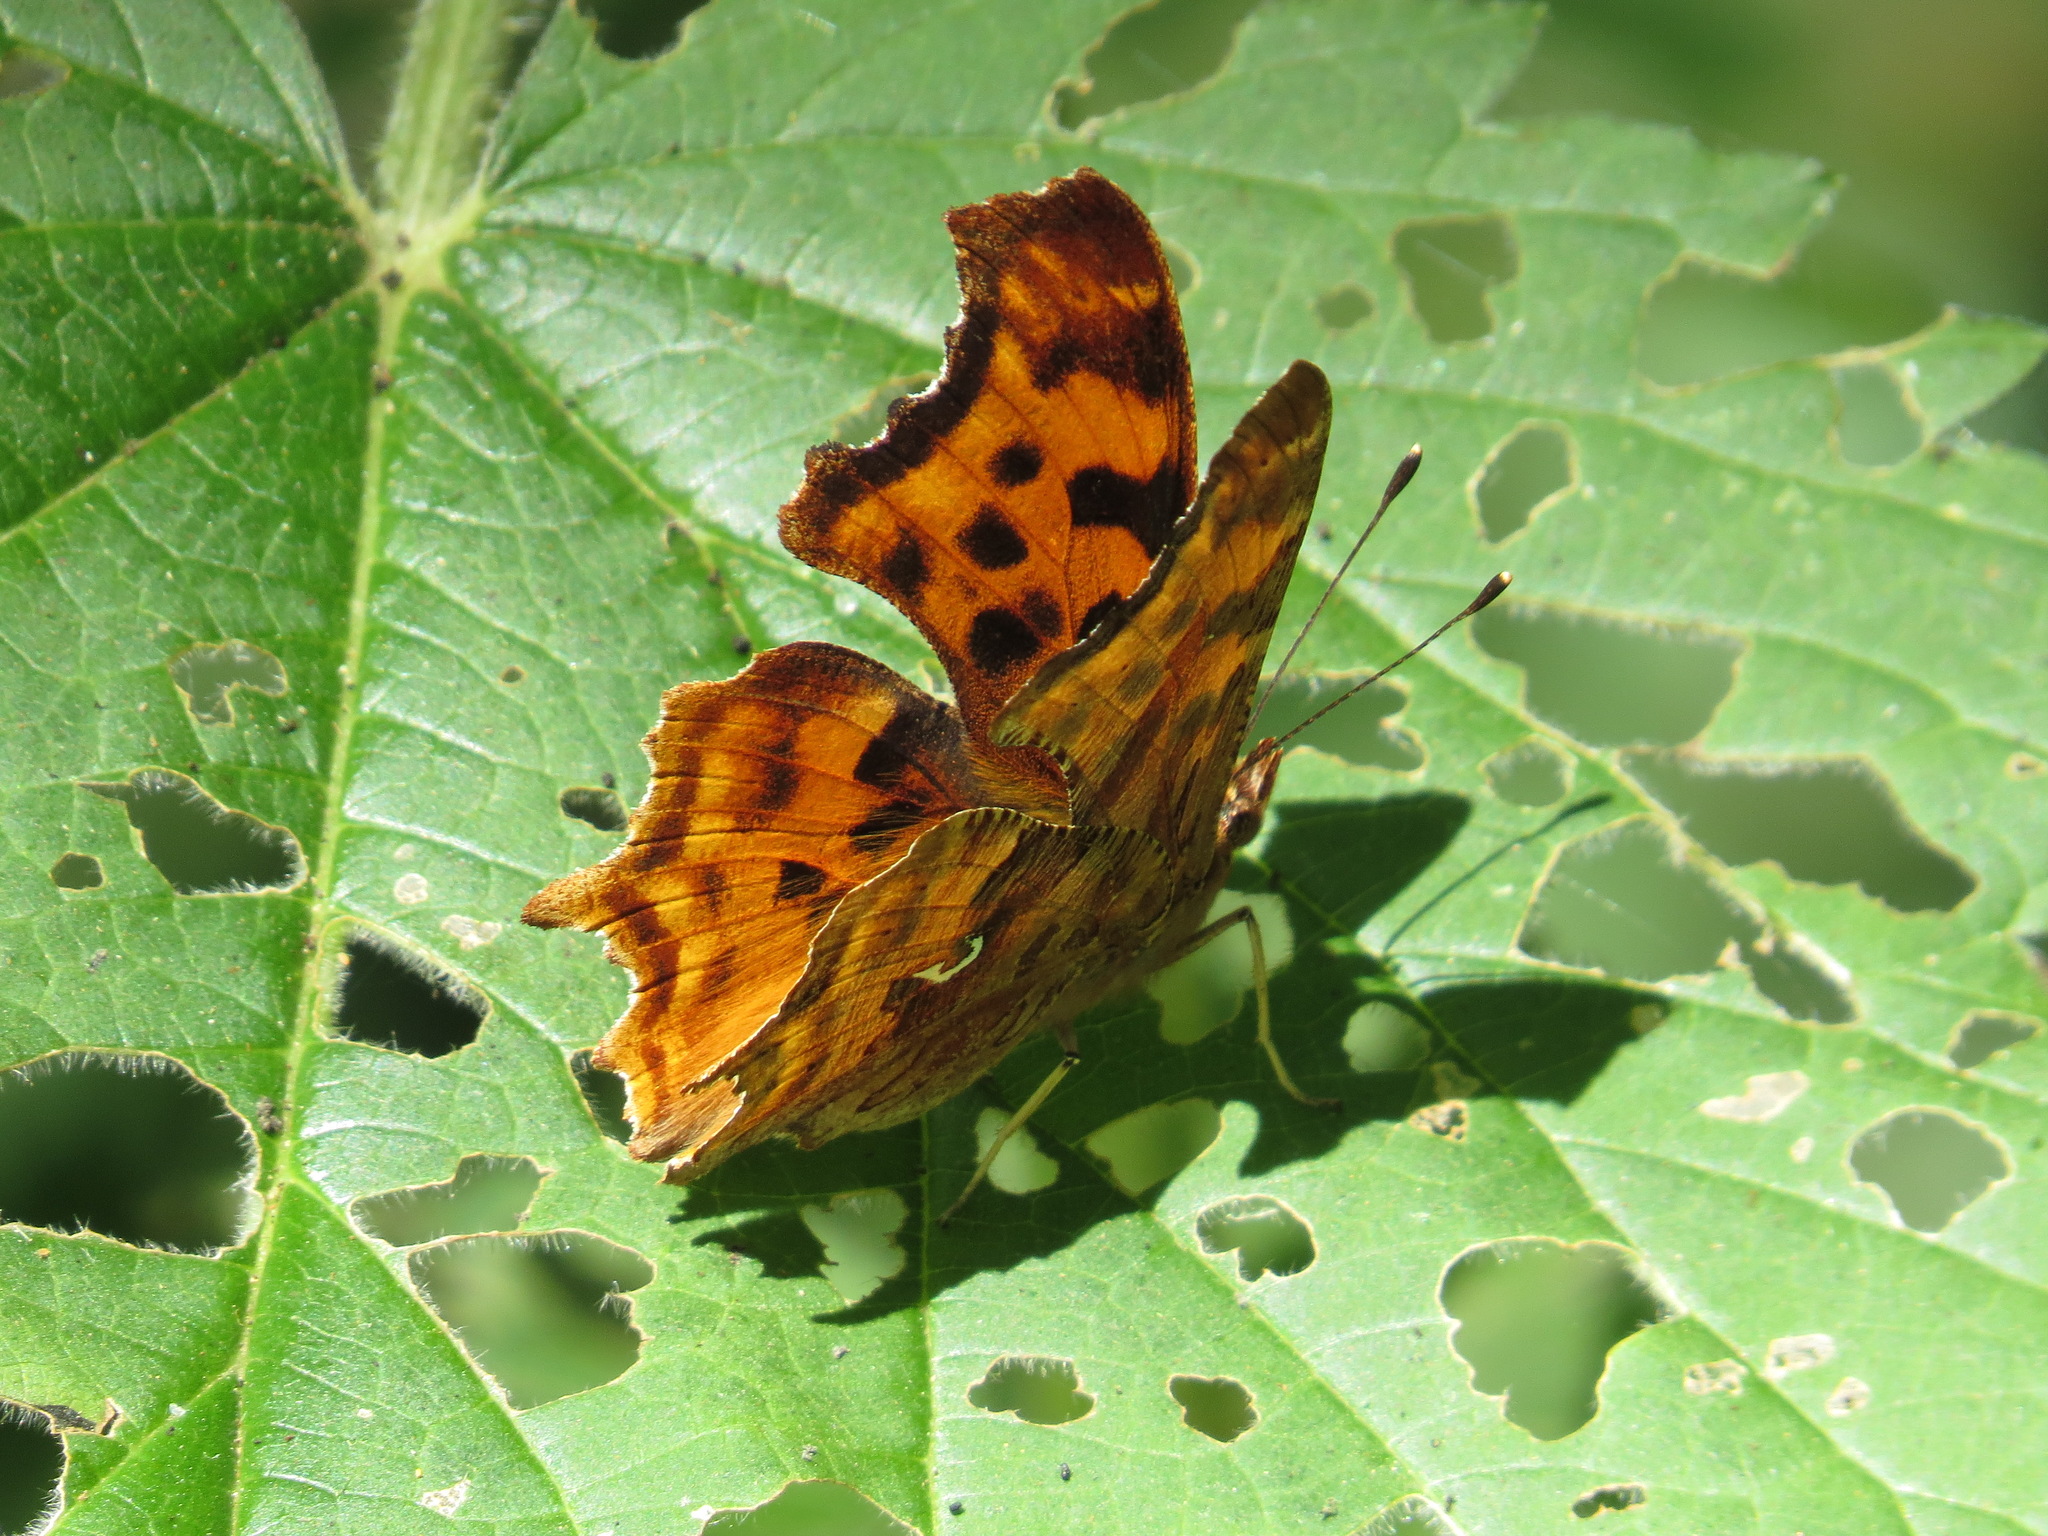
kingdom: Animalia
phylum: Arthropoda
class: Insecta
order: Lepidoptera
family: Nymphalidae
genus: Polygonia
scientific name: Polygonia satyrus
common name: Satyr angle wing
